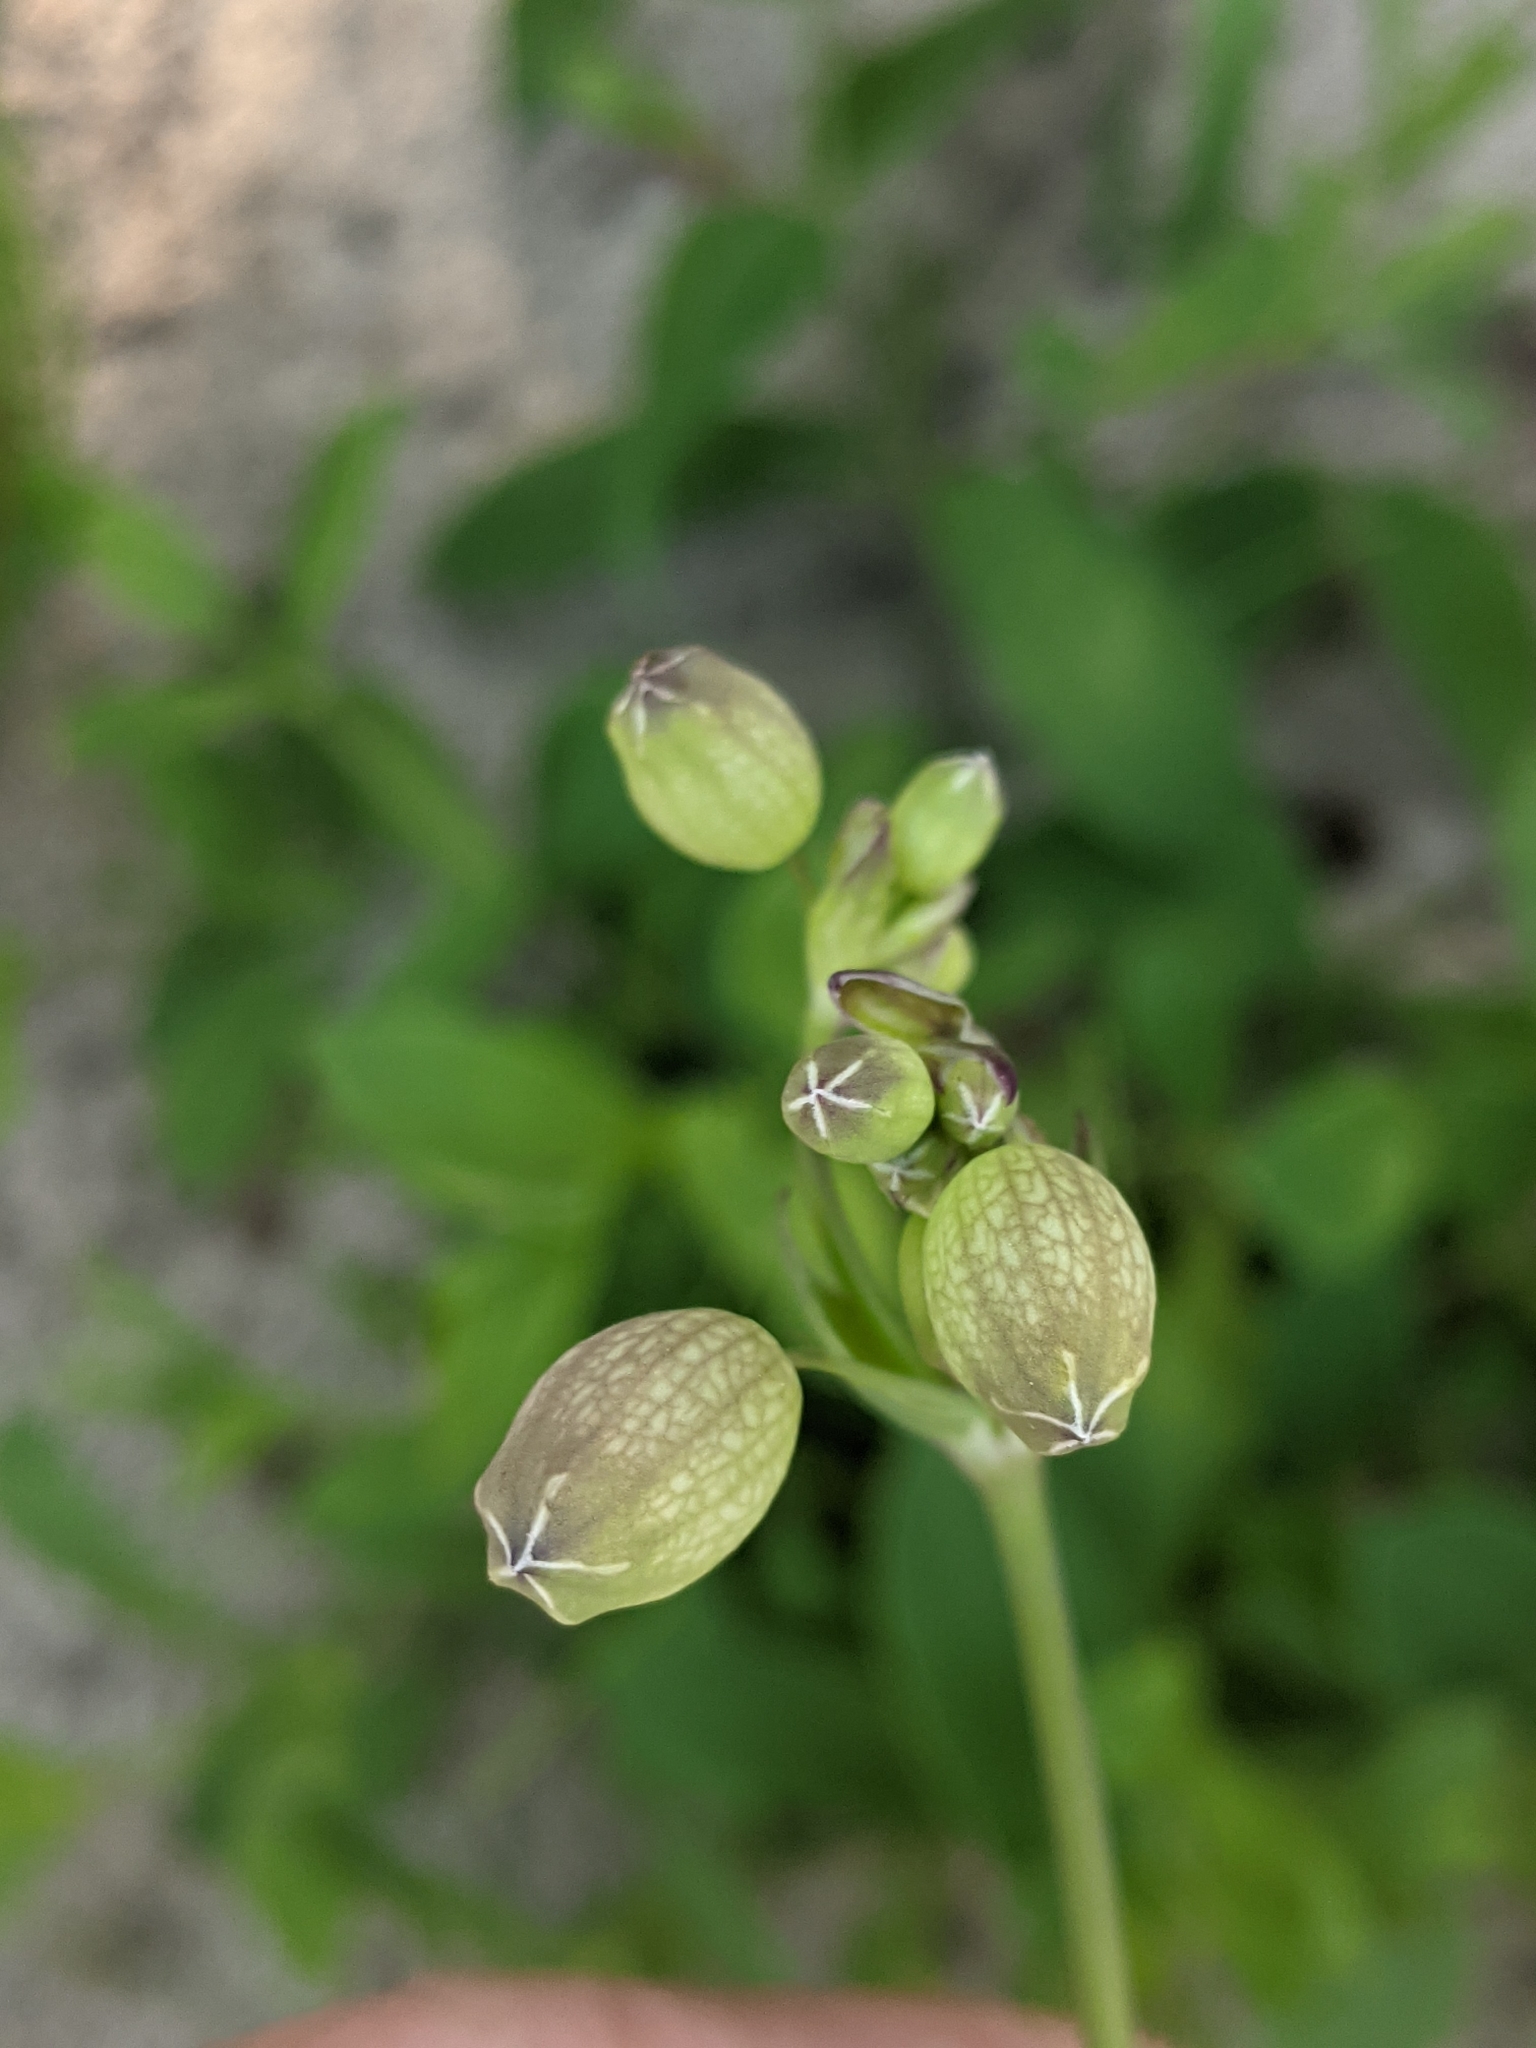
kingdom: Plantae
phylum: Tracheophyta
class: Magnoliopsida
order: Caryophyllales
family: Caryophyllaceae
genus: Silene
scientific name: Silene vulgaris
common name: Bladder campion
